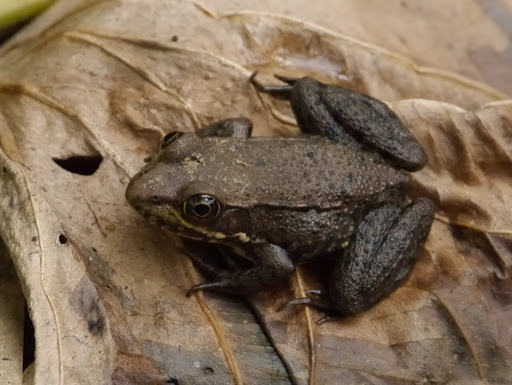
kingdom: Animalia
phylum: Chordata
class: Amphibia
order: Anura
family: Ranidae
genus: Lithobates
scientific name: Lithobates clamitans
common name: Green frog
